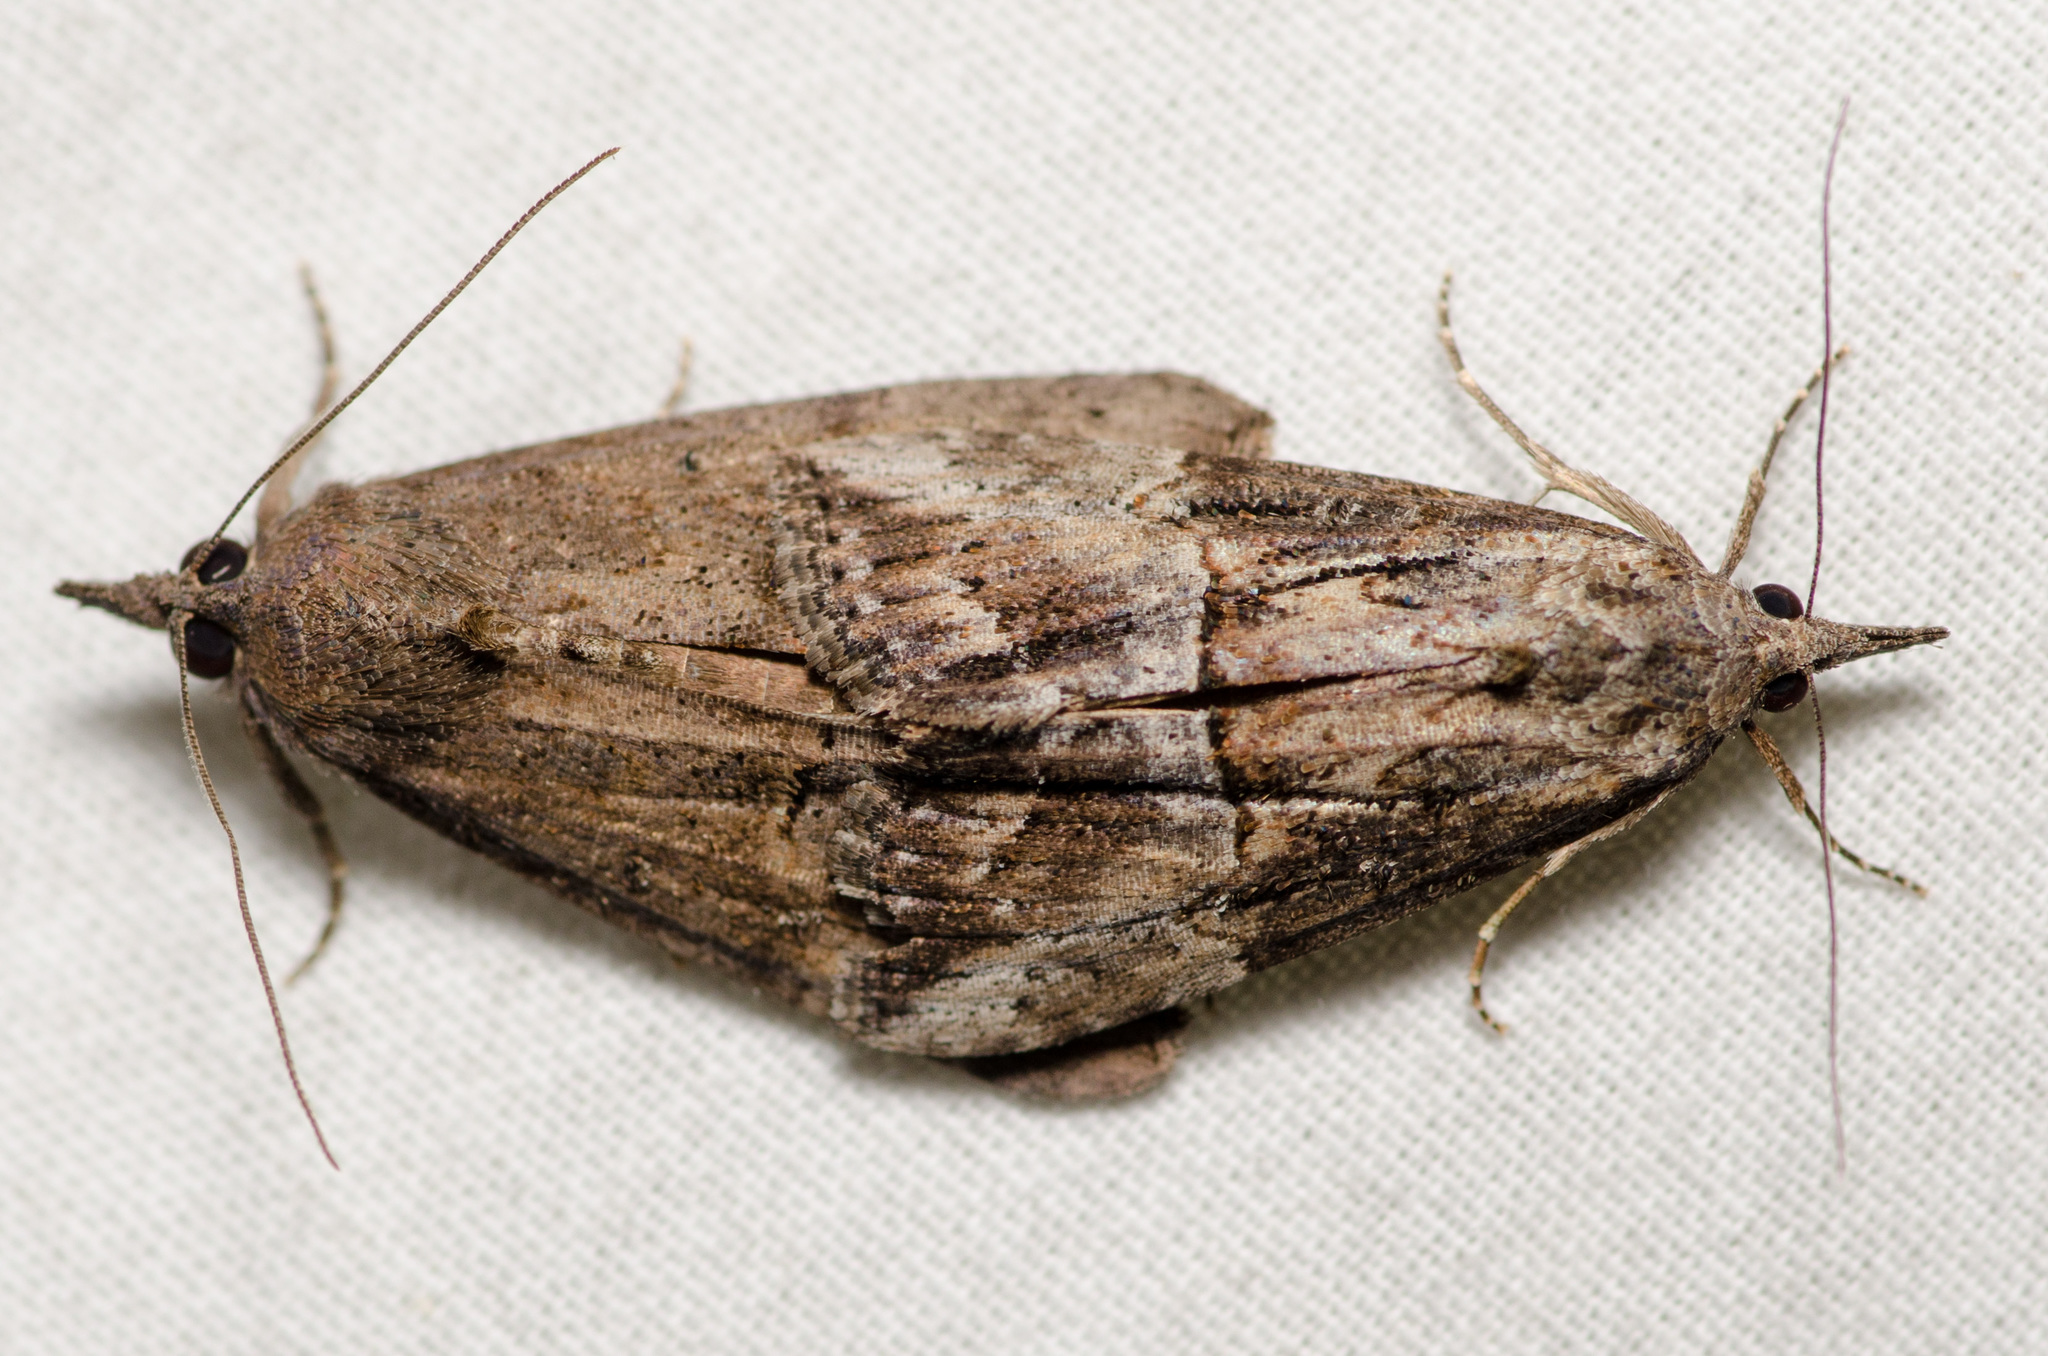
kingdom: Animalia
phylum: Arthropoda
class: Insecta
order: Lepidoptera
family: Erebidae
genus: Hypena
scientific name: Hypena scabra
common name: Green cloverworm
